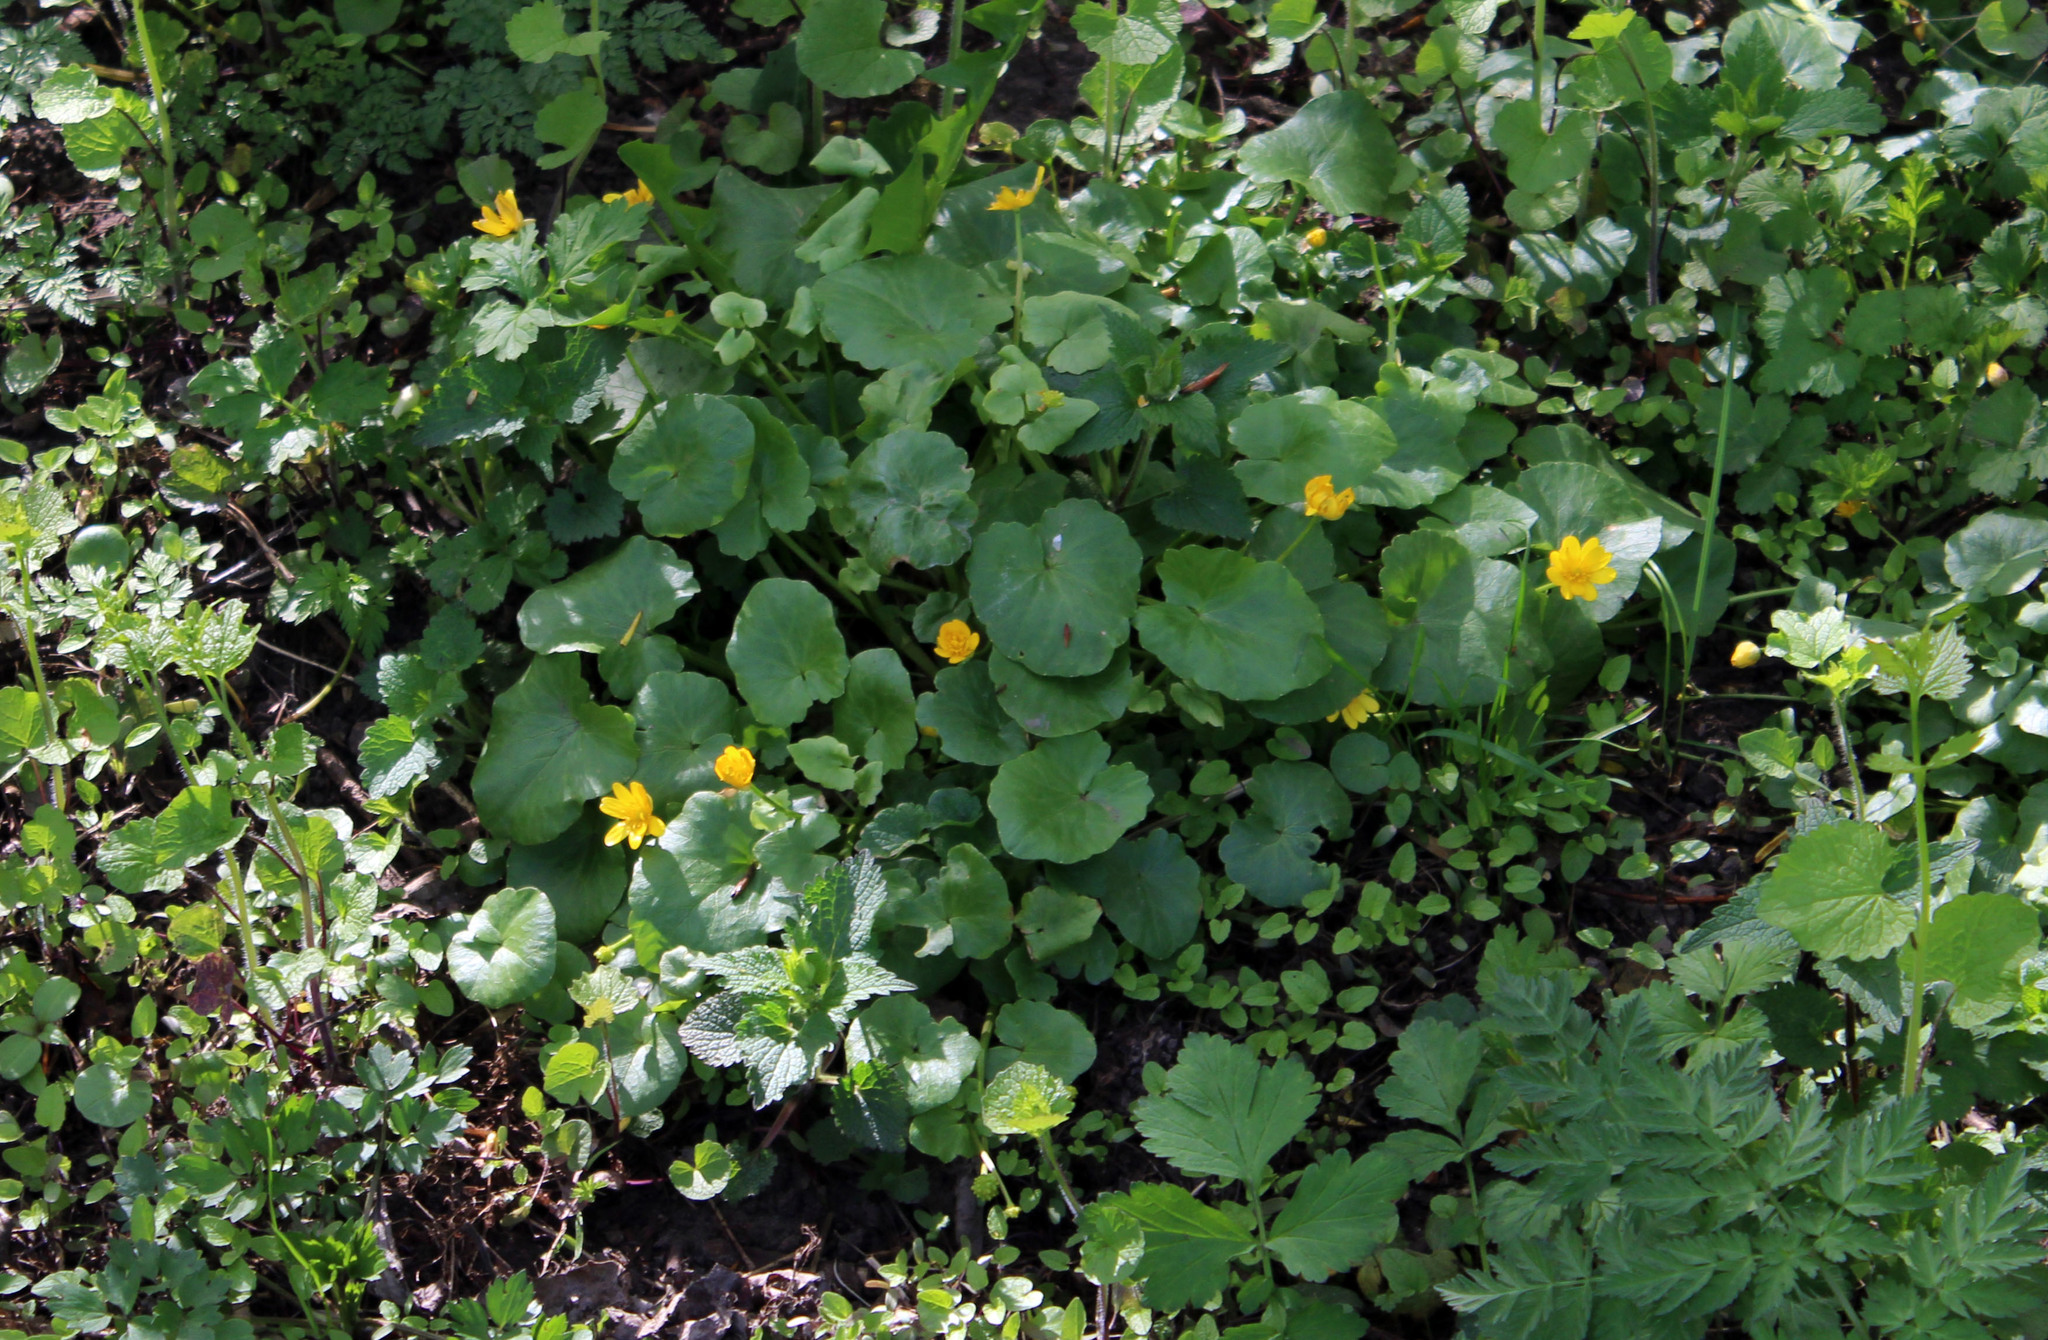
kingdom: Plantae
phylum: Tracheophyta
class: Magnoliopsida
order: Ranunculales
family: Ranunculaceae
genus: Ficaria
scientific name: Ficaria verna
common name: Lesser celandine
